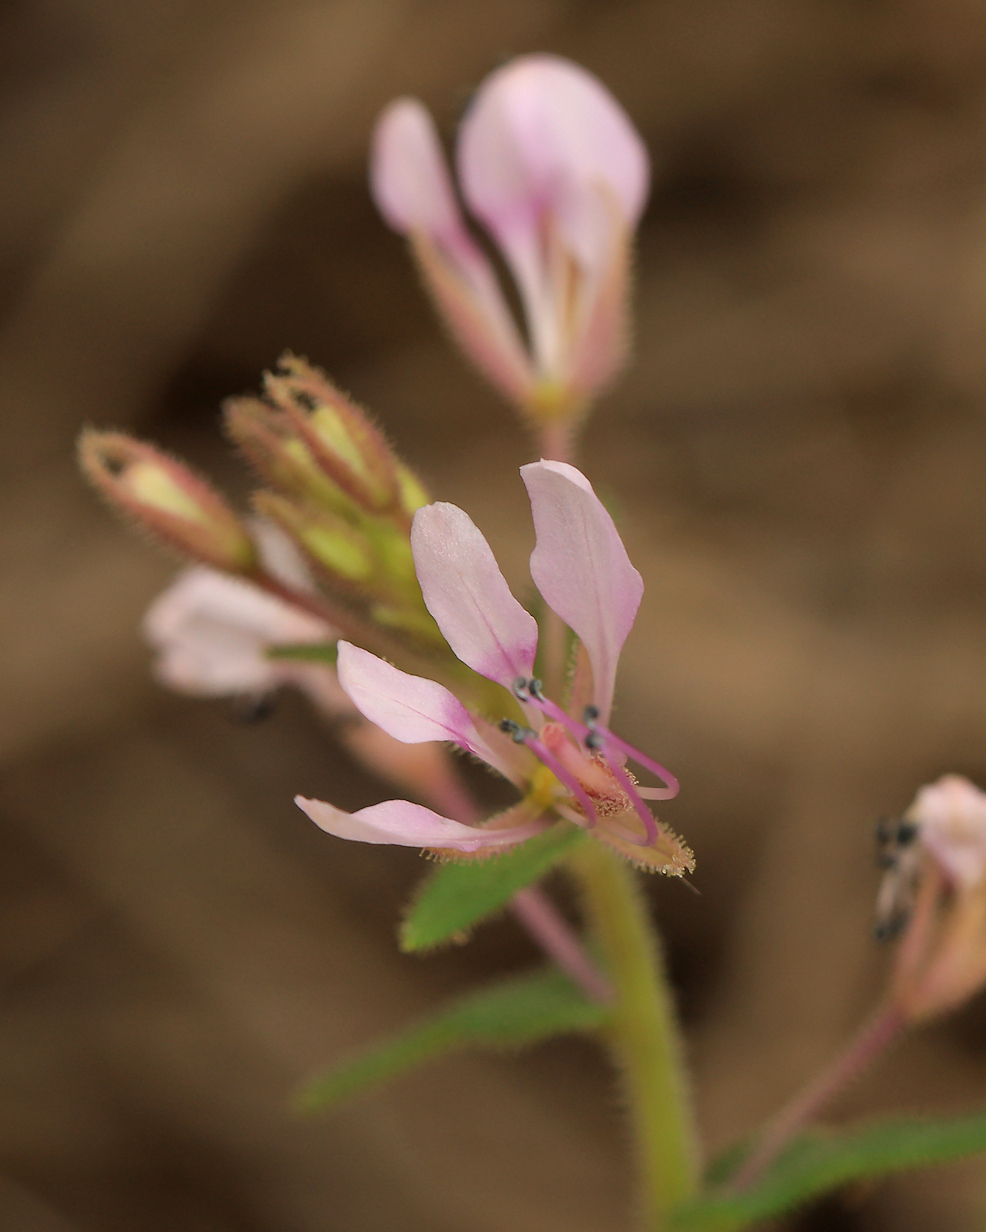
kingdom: Plantae
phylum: Tracheophyta
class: Magnoliopsida
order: Brassicales
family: Cleomaceae
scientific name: Cleomaceae
